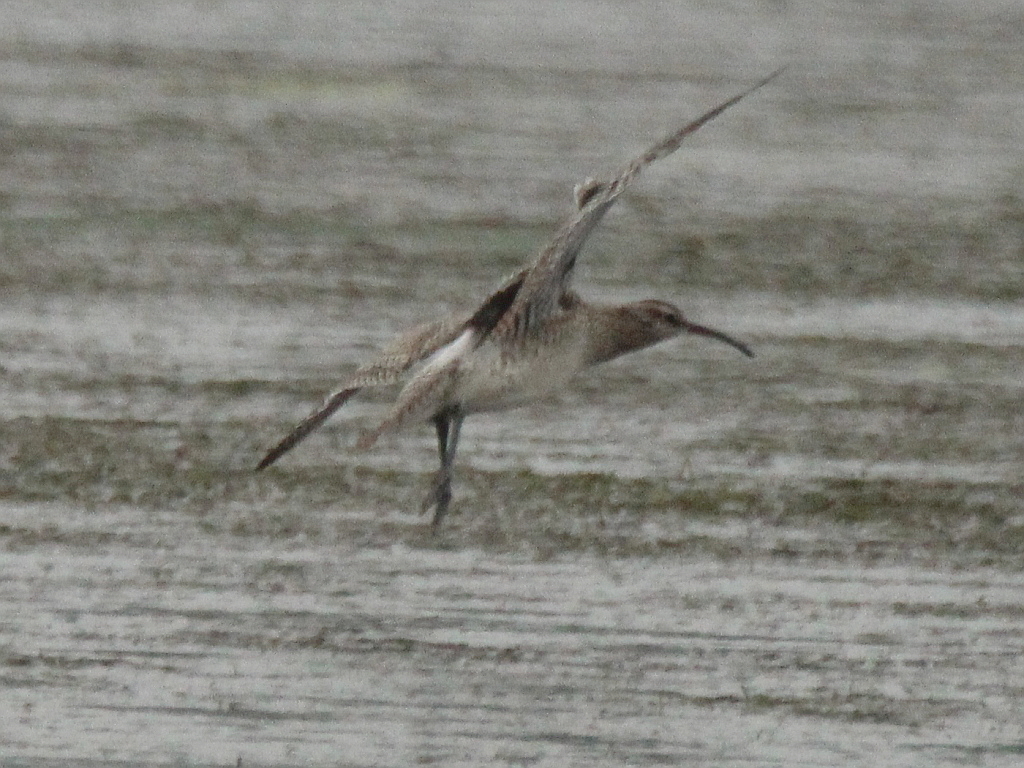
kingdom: Animalia
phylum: Chordata
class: Aves
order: Charadriiformes
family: Scolopacidae
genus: Numenius
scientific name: Numenius phaeopus
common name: Whimbrel
